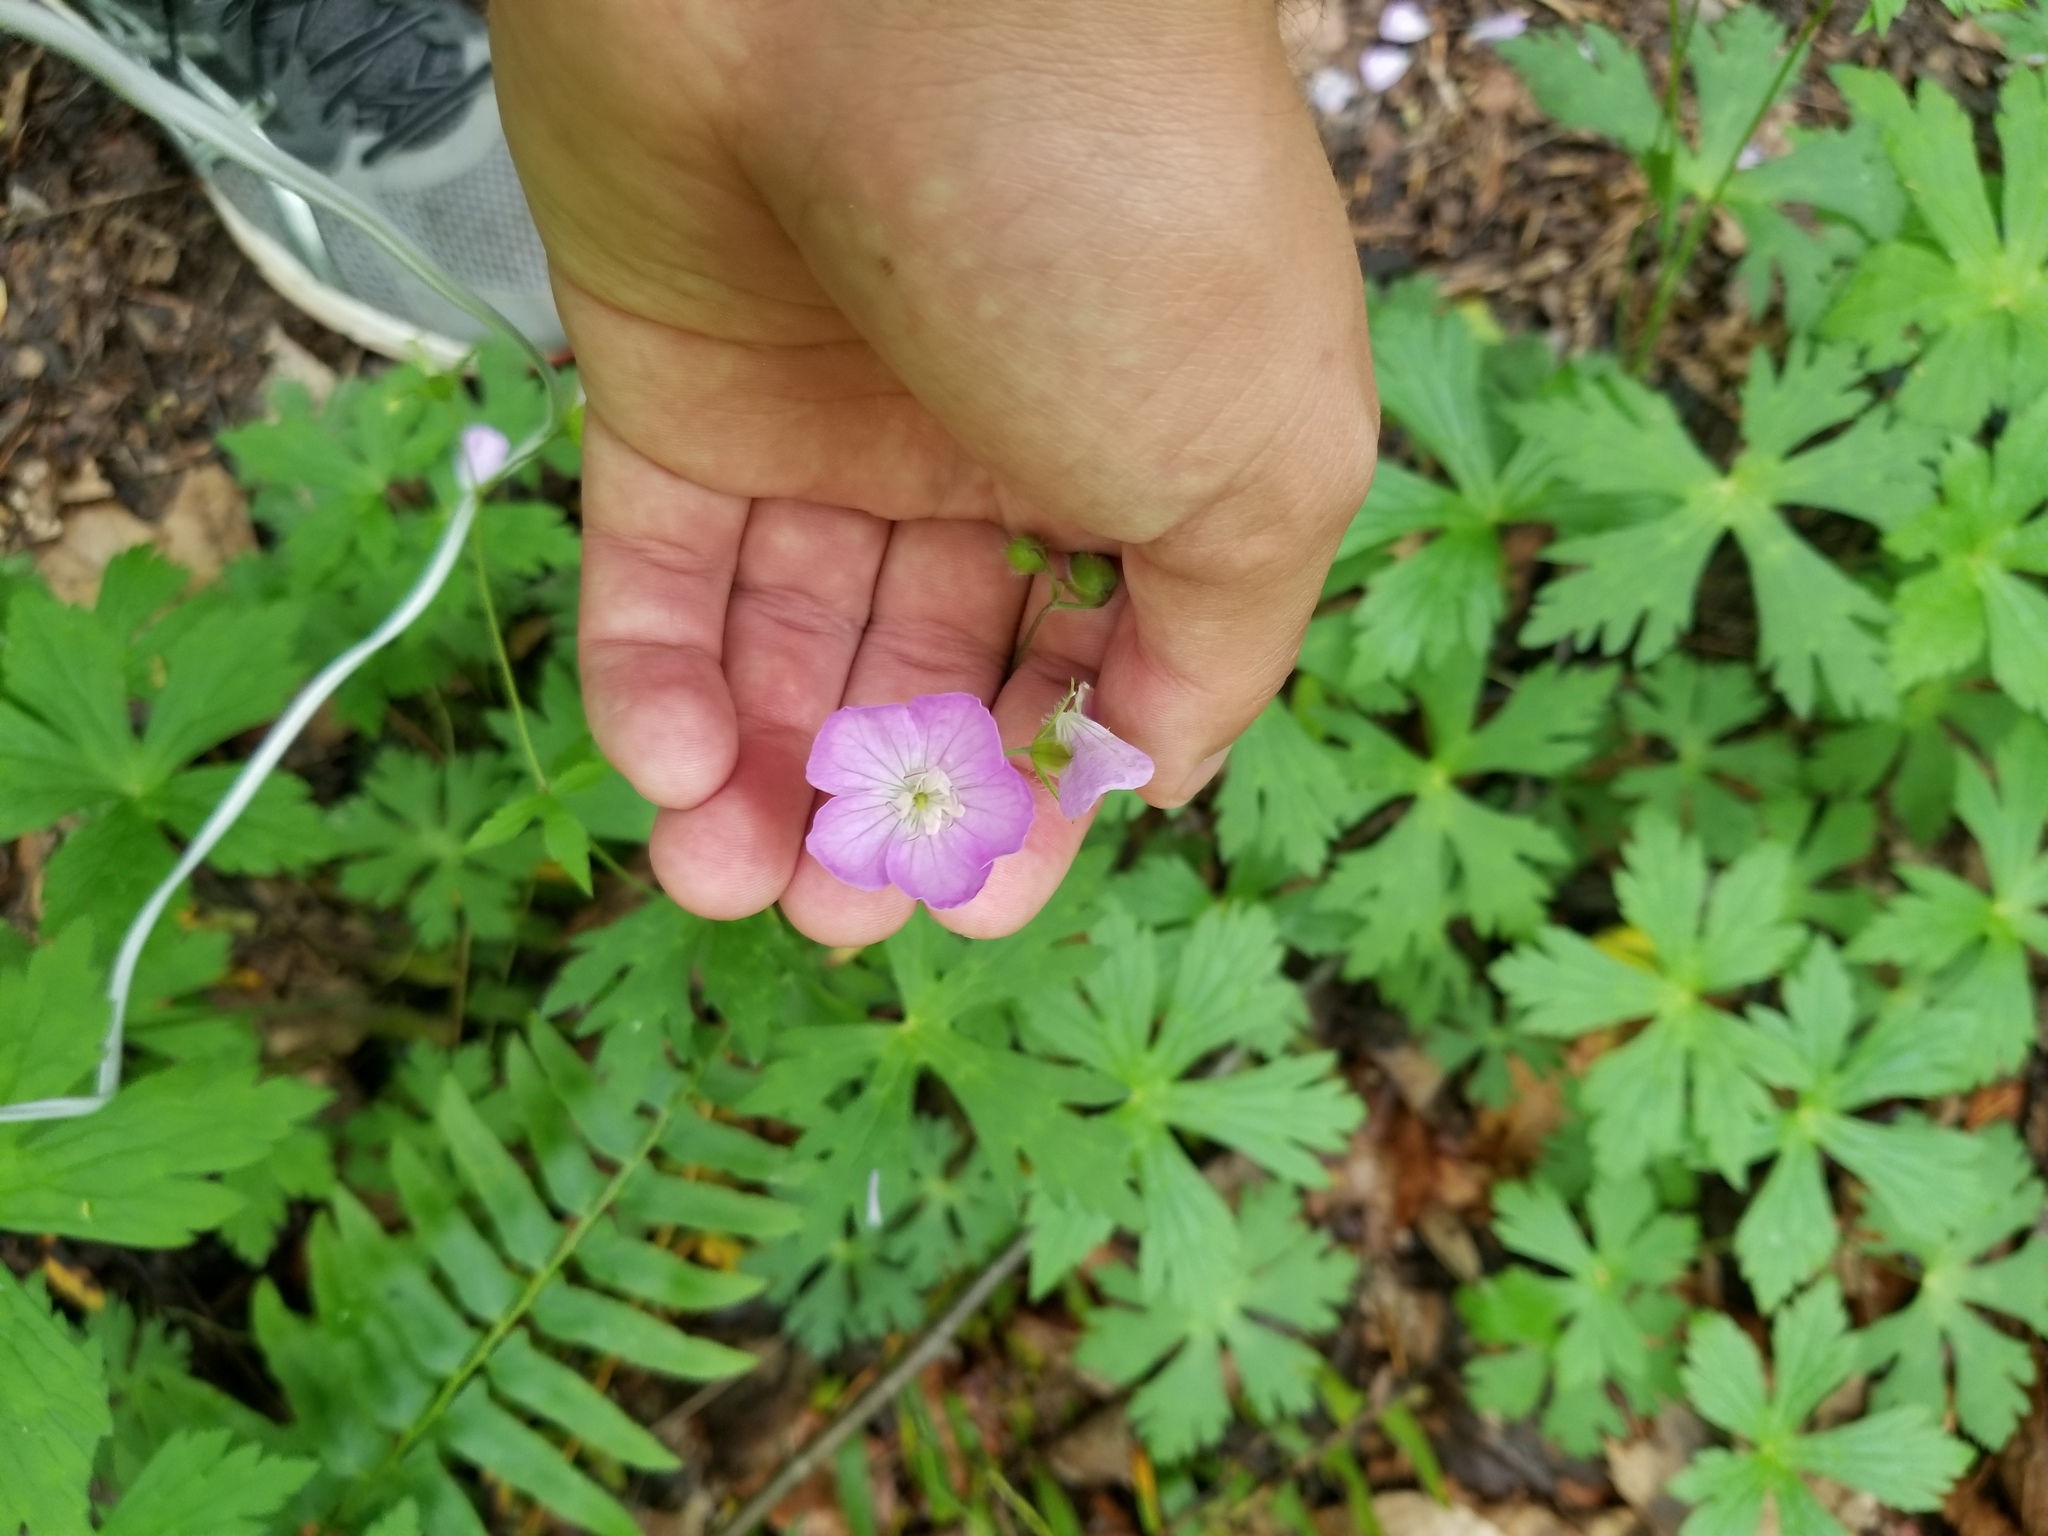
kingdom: Plantae
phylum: Tracheophyta
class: Magnoliopsida
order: Geraniales
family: Geraniaceae
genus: Geranium
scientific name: Geranium maculatum
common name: Spotted geranium
